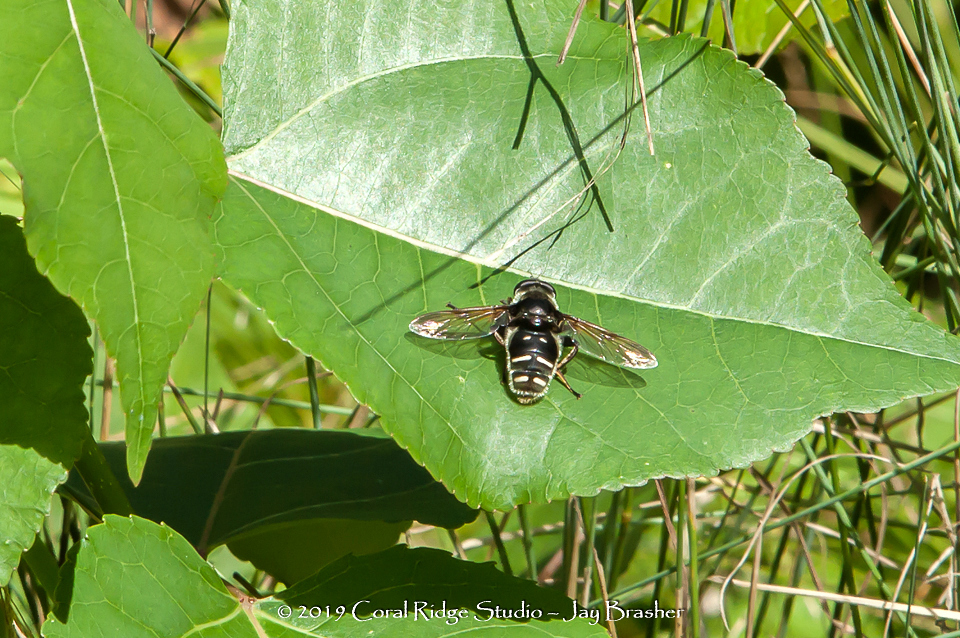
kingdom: Animalia
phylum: Arthropoda
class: Insecta
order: Diptera
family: Syrphidae
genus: Sericomyia
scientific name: Sericomyia militaris
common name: Narrow-banded pond fly
